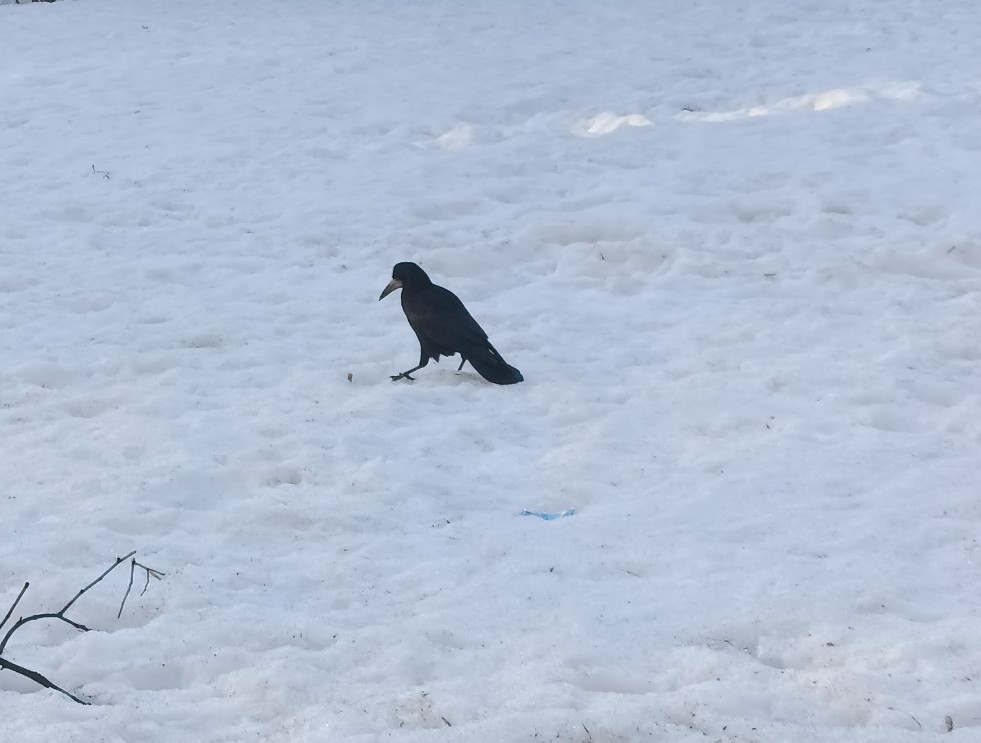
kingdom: Animalia
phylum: Chordata
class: Aves
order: Passeriformes
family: Corvidae
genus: Corvus
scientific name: Corvus frugilegus
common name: Rook
